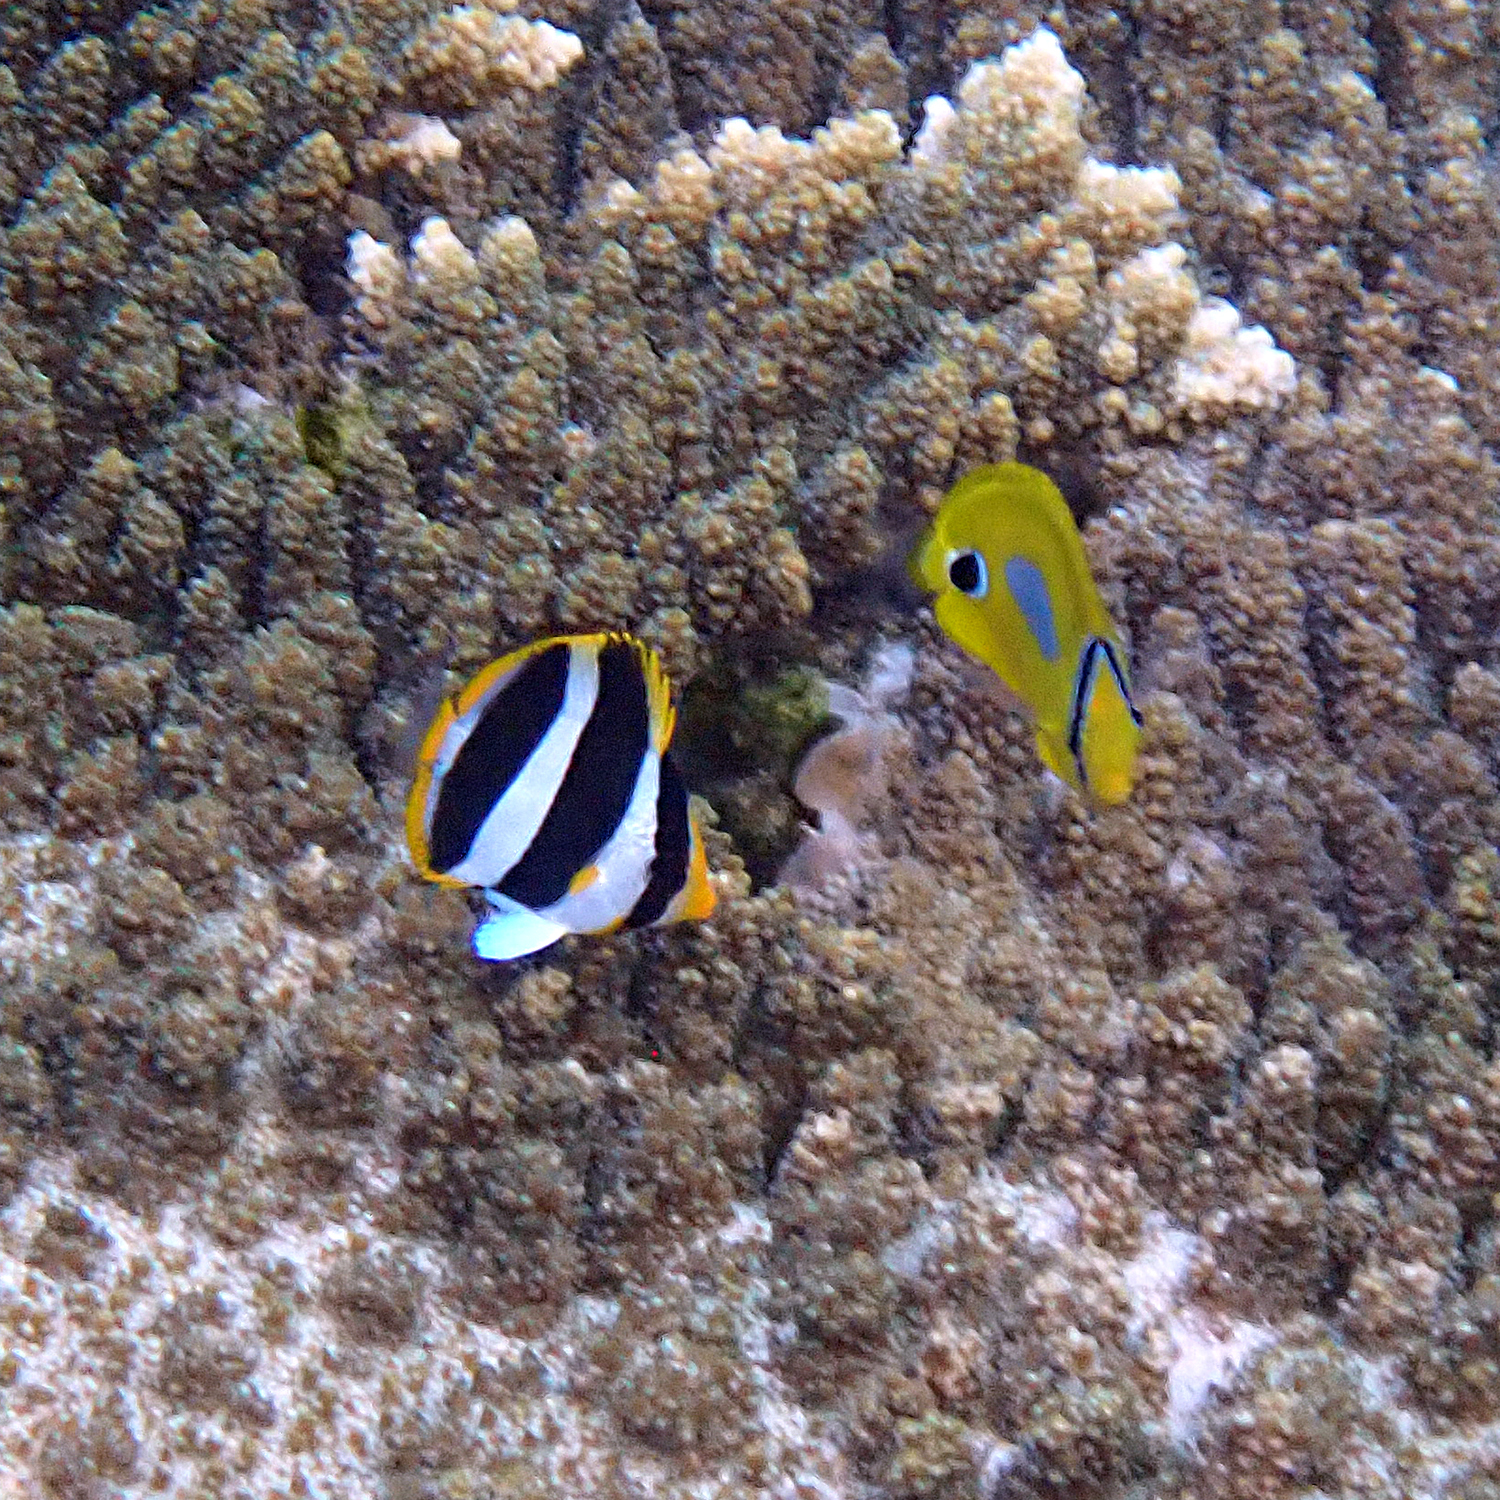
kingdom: Animalia
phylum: Chordata
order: Perciformes
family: Chaetodontidae
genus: Chaetodon
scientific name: Chaetodon tricinctus
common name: Three-striped butterflyfish
